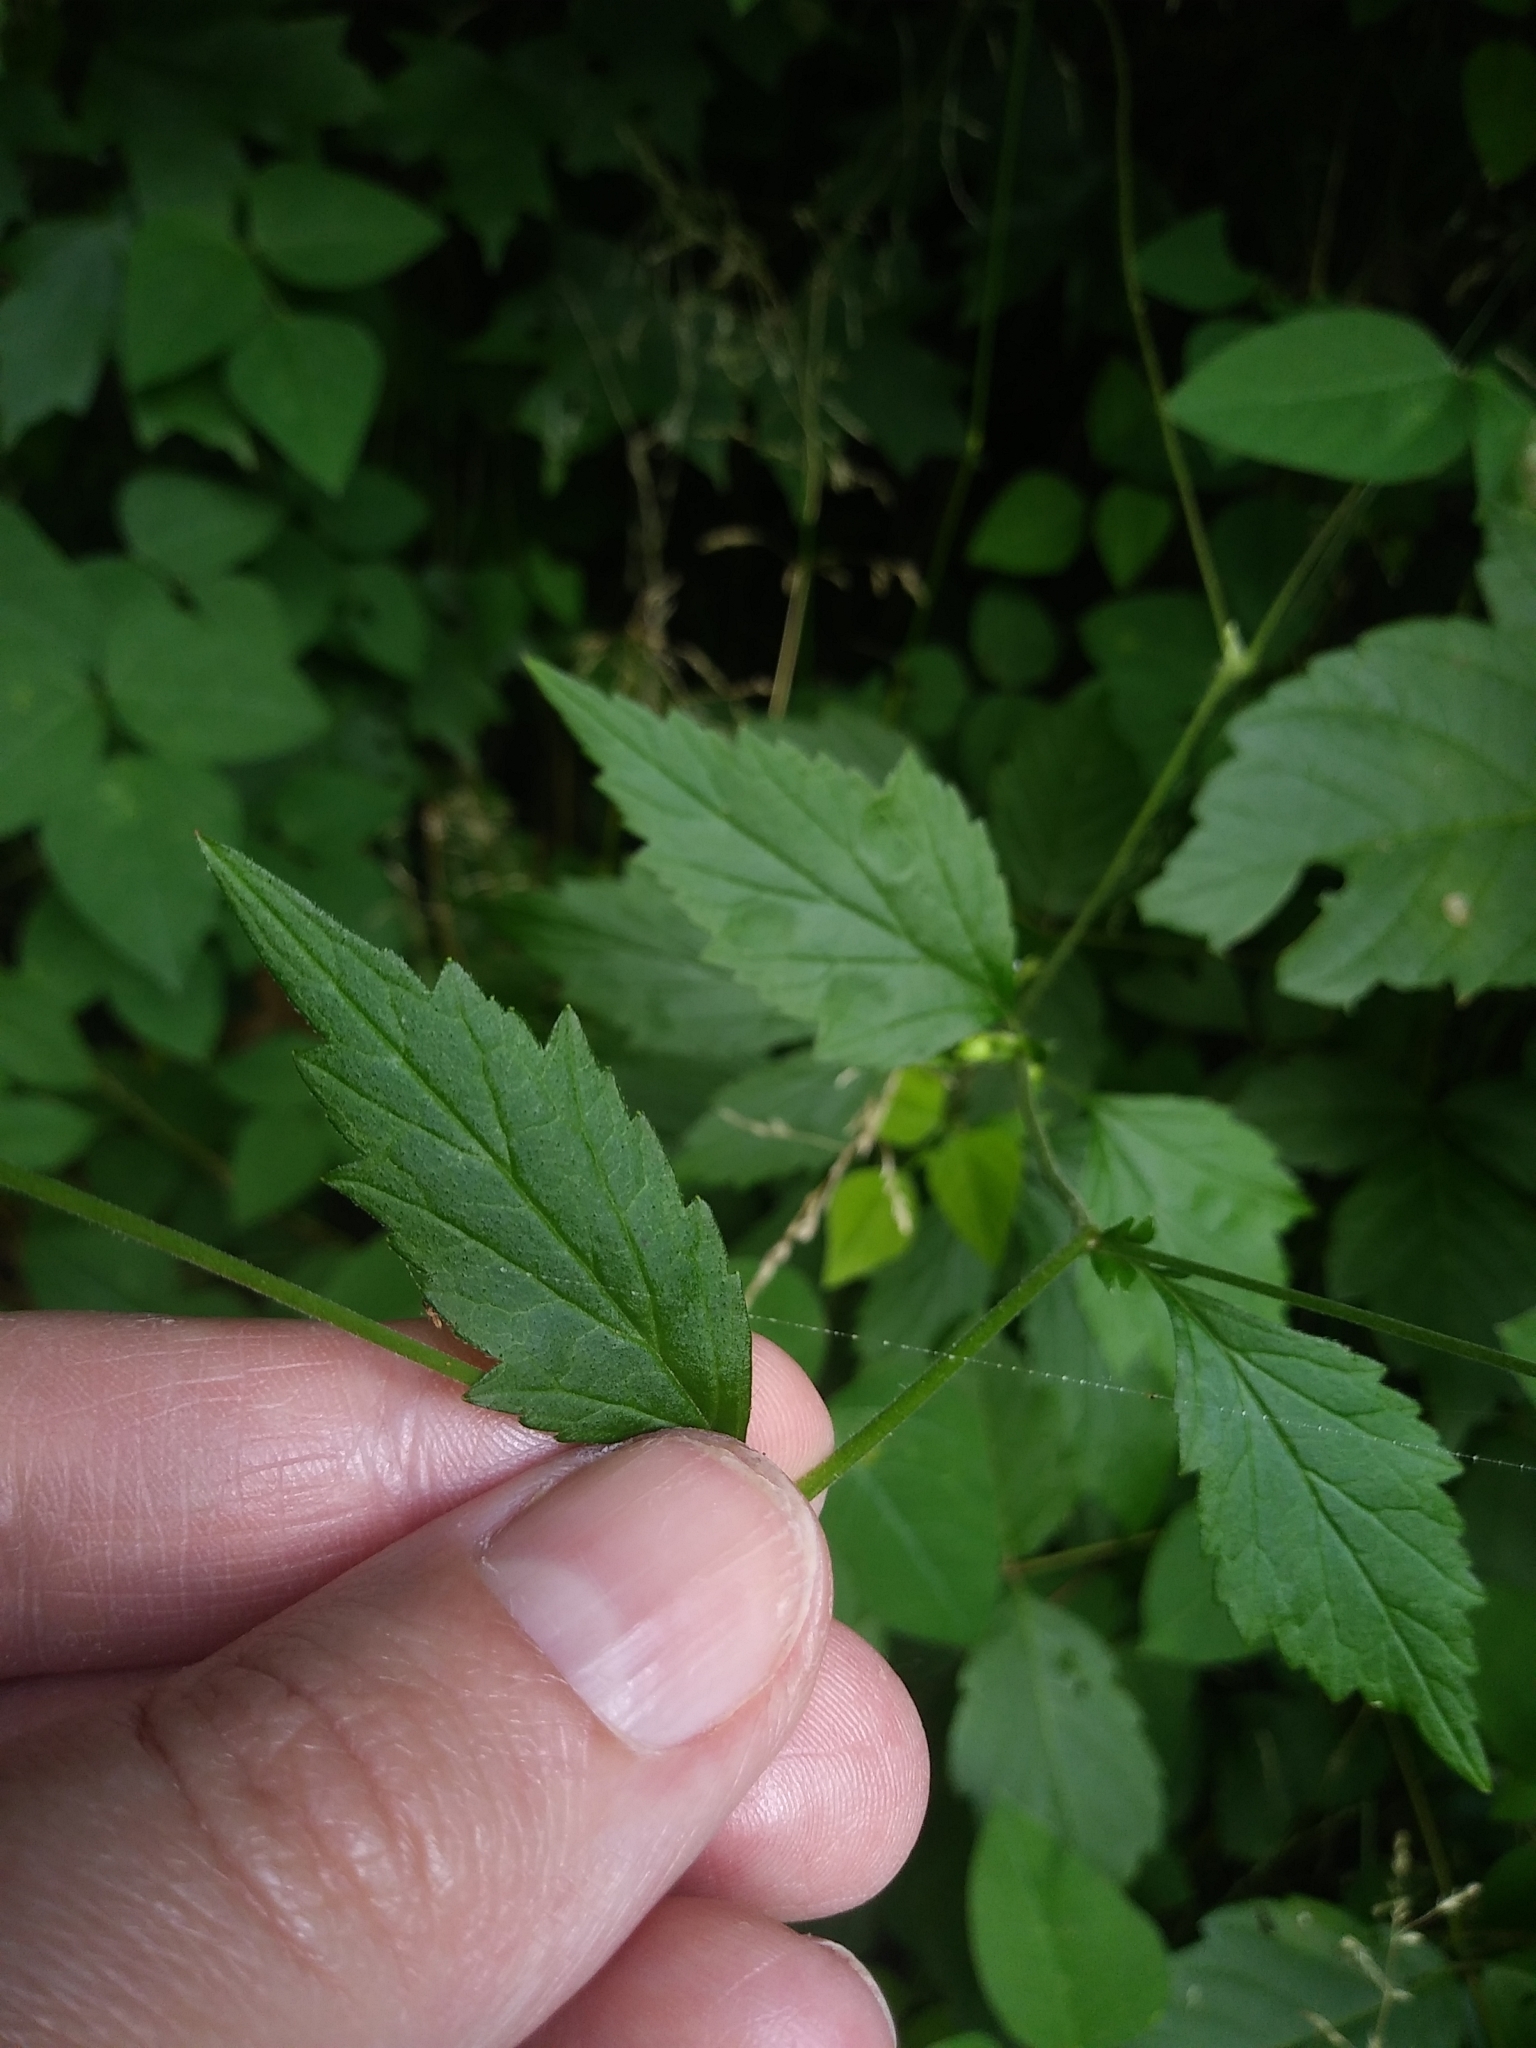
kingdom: Plantae
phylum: Tracheophyta
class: Magnoliopsida
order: Rosales
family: Rosaceae
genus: Geum
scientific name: Geum canadense
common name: White avens
